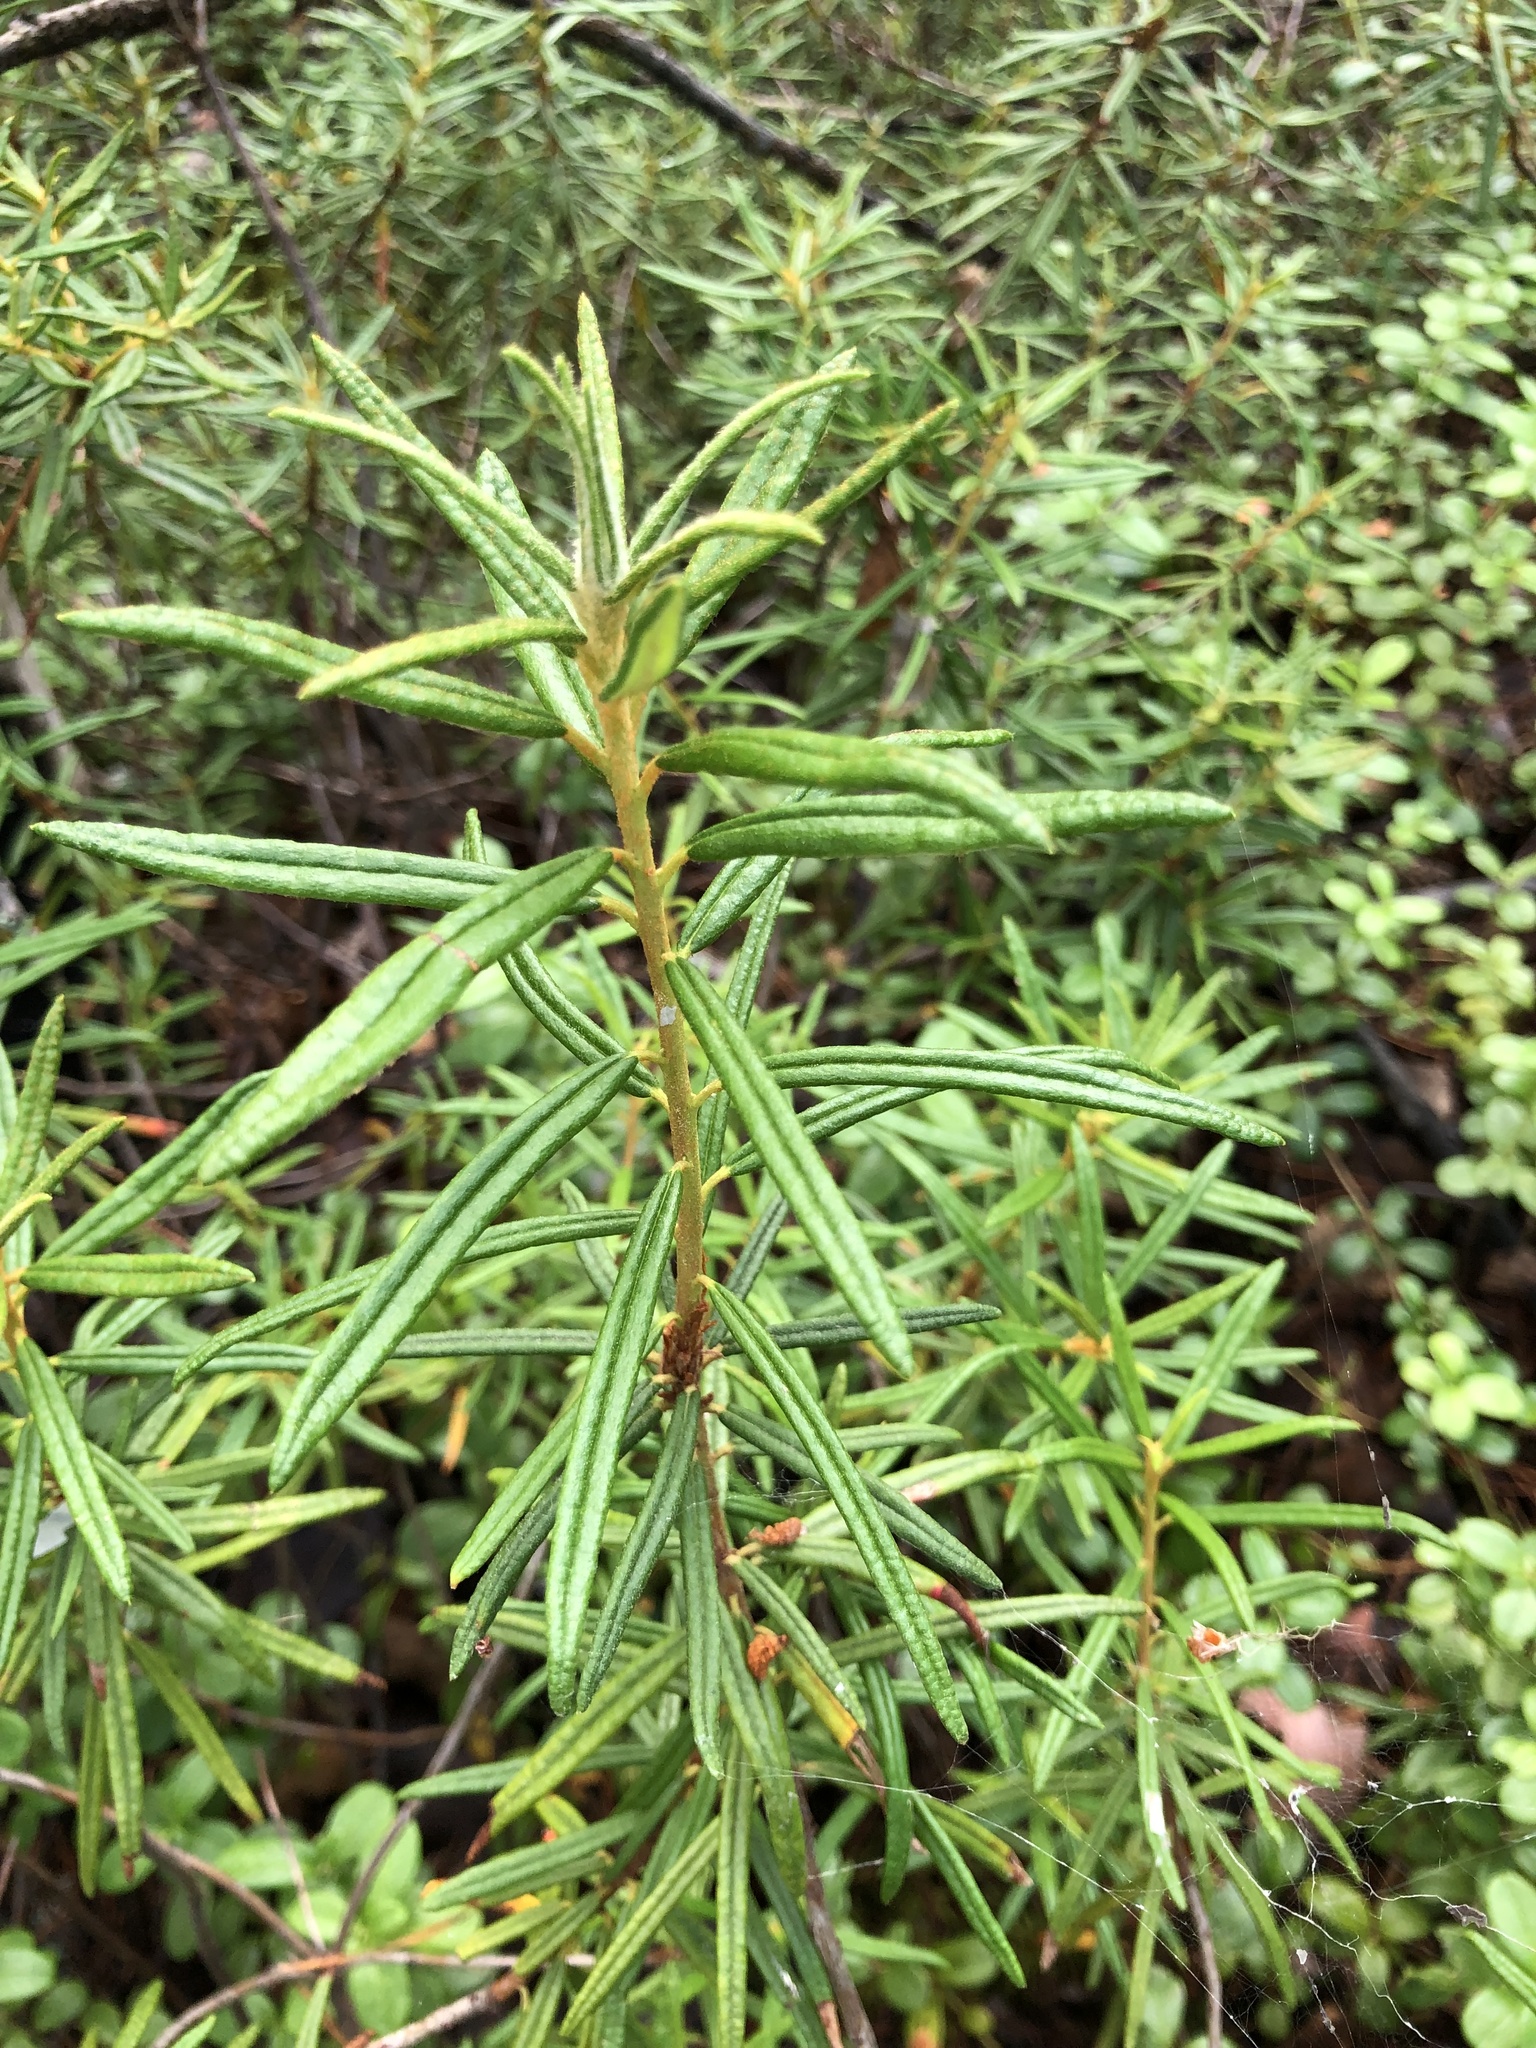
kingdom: Plantae
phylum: Tracheophyta
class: Magnoliopsida
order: Ericales
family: Ericaceae
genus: Rhododendron
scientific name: Rhododendron tomentosum
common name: Marsh labrador tea
